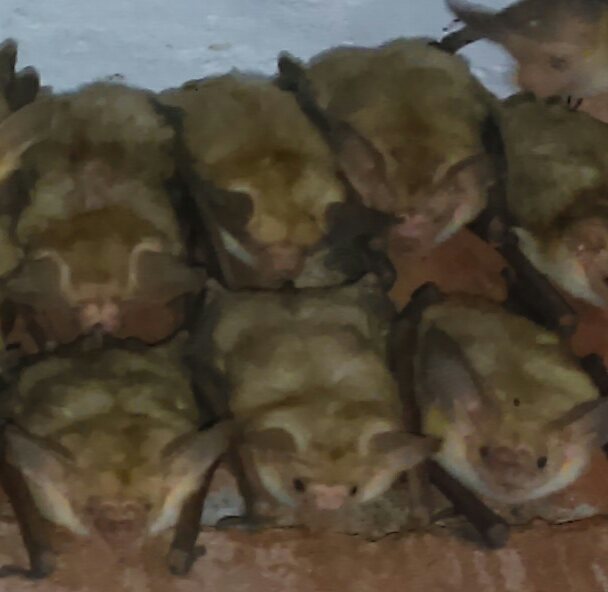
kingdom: Animalia
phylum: Chordata
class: Mammalia
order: Chiroptera
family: Vespertilionidae
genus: Antrozous
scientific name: Antrozous pallidus
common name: Pallid bat
